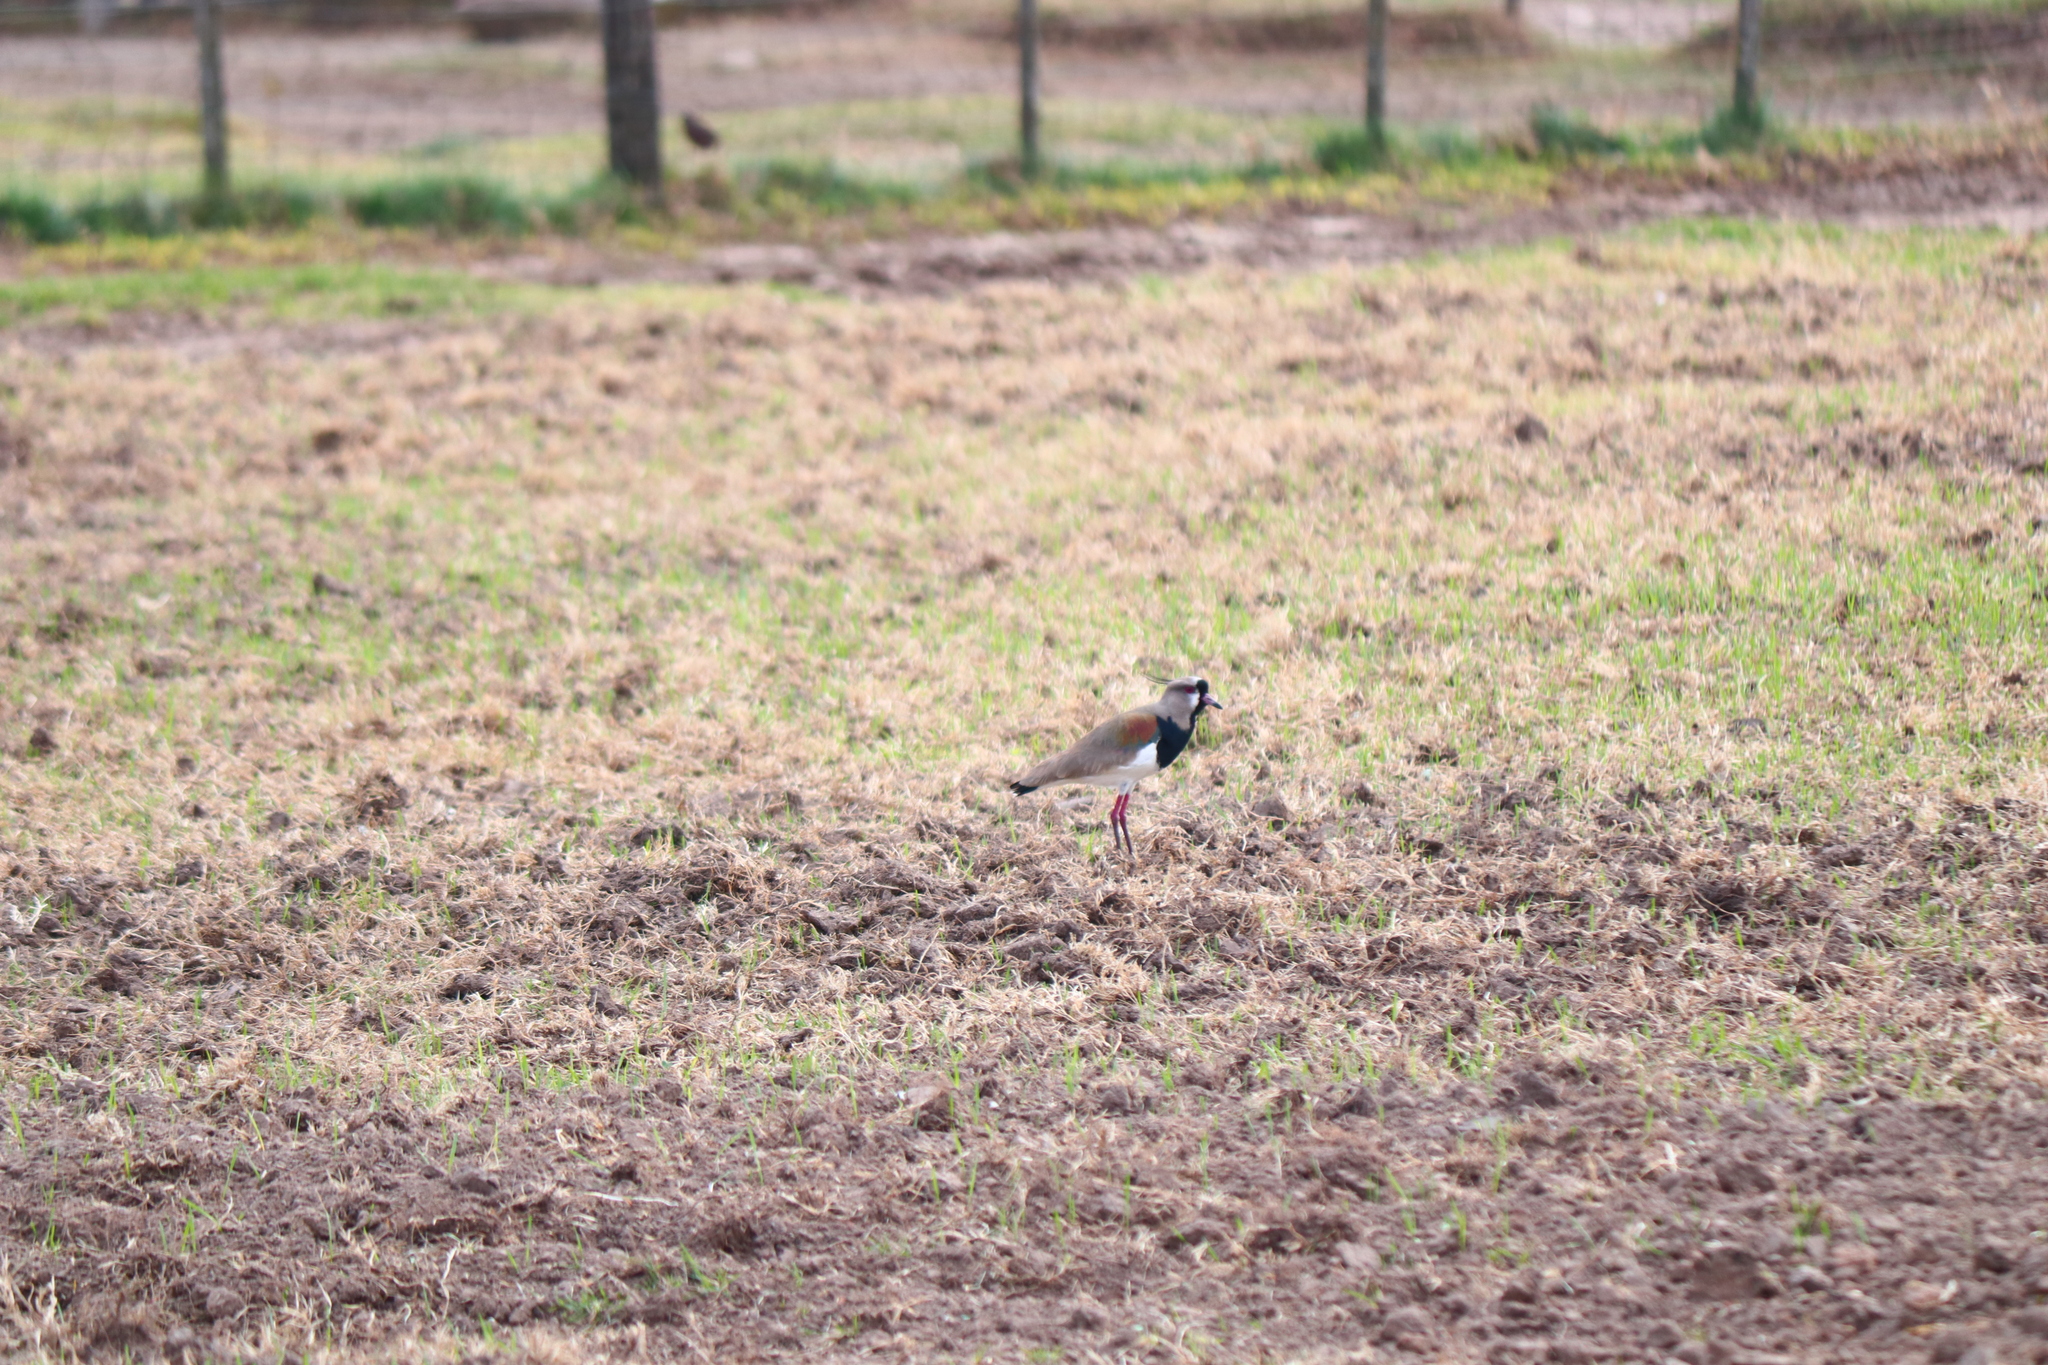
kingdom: Animalia
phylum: Chordata
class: Aves
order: Charadriiformes
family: Charadriidae
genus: Vanellus
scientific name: Vanellus chilensis
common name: Southern lapwing
